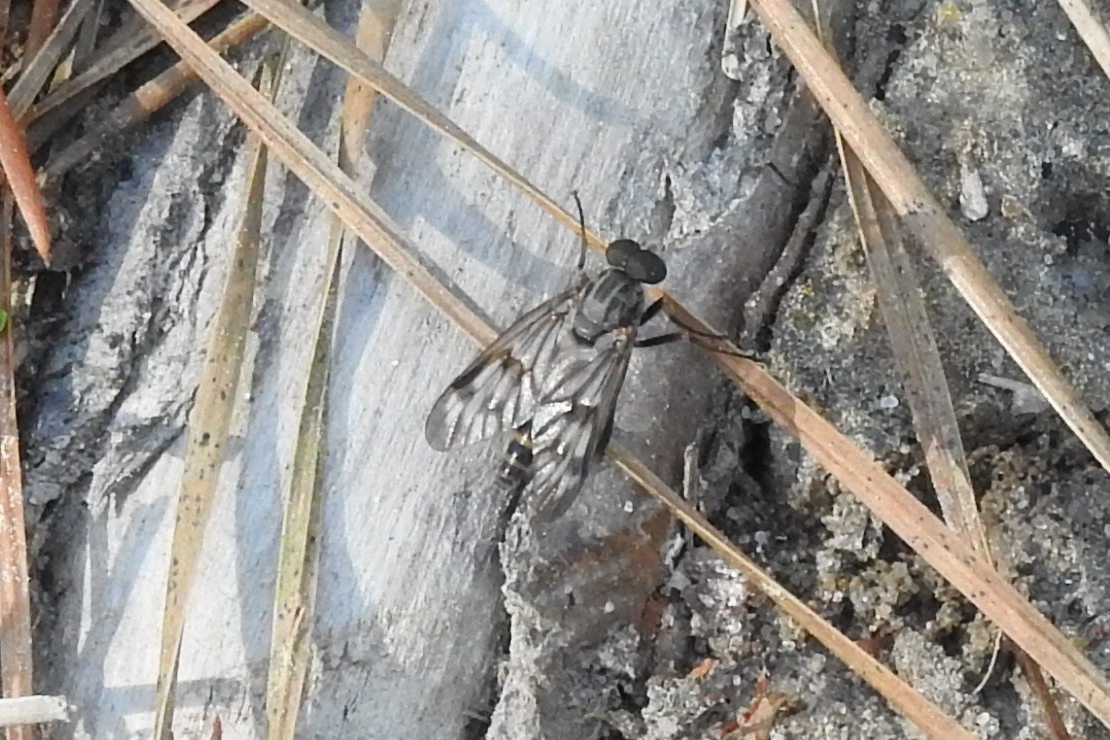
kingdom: Animalia
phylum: Arthropoda
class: Insecta
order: Diptera
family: Rhagionidae
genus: Rhagio
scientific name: Rhagio mystaceus
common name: Common snipe fly
